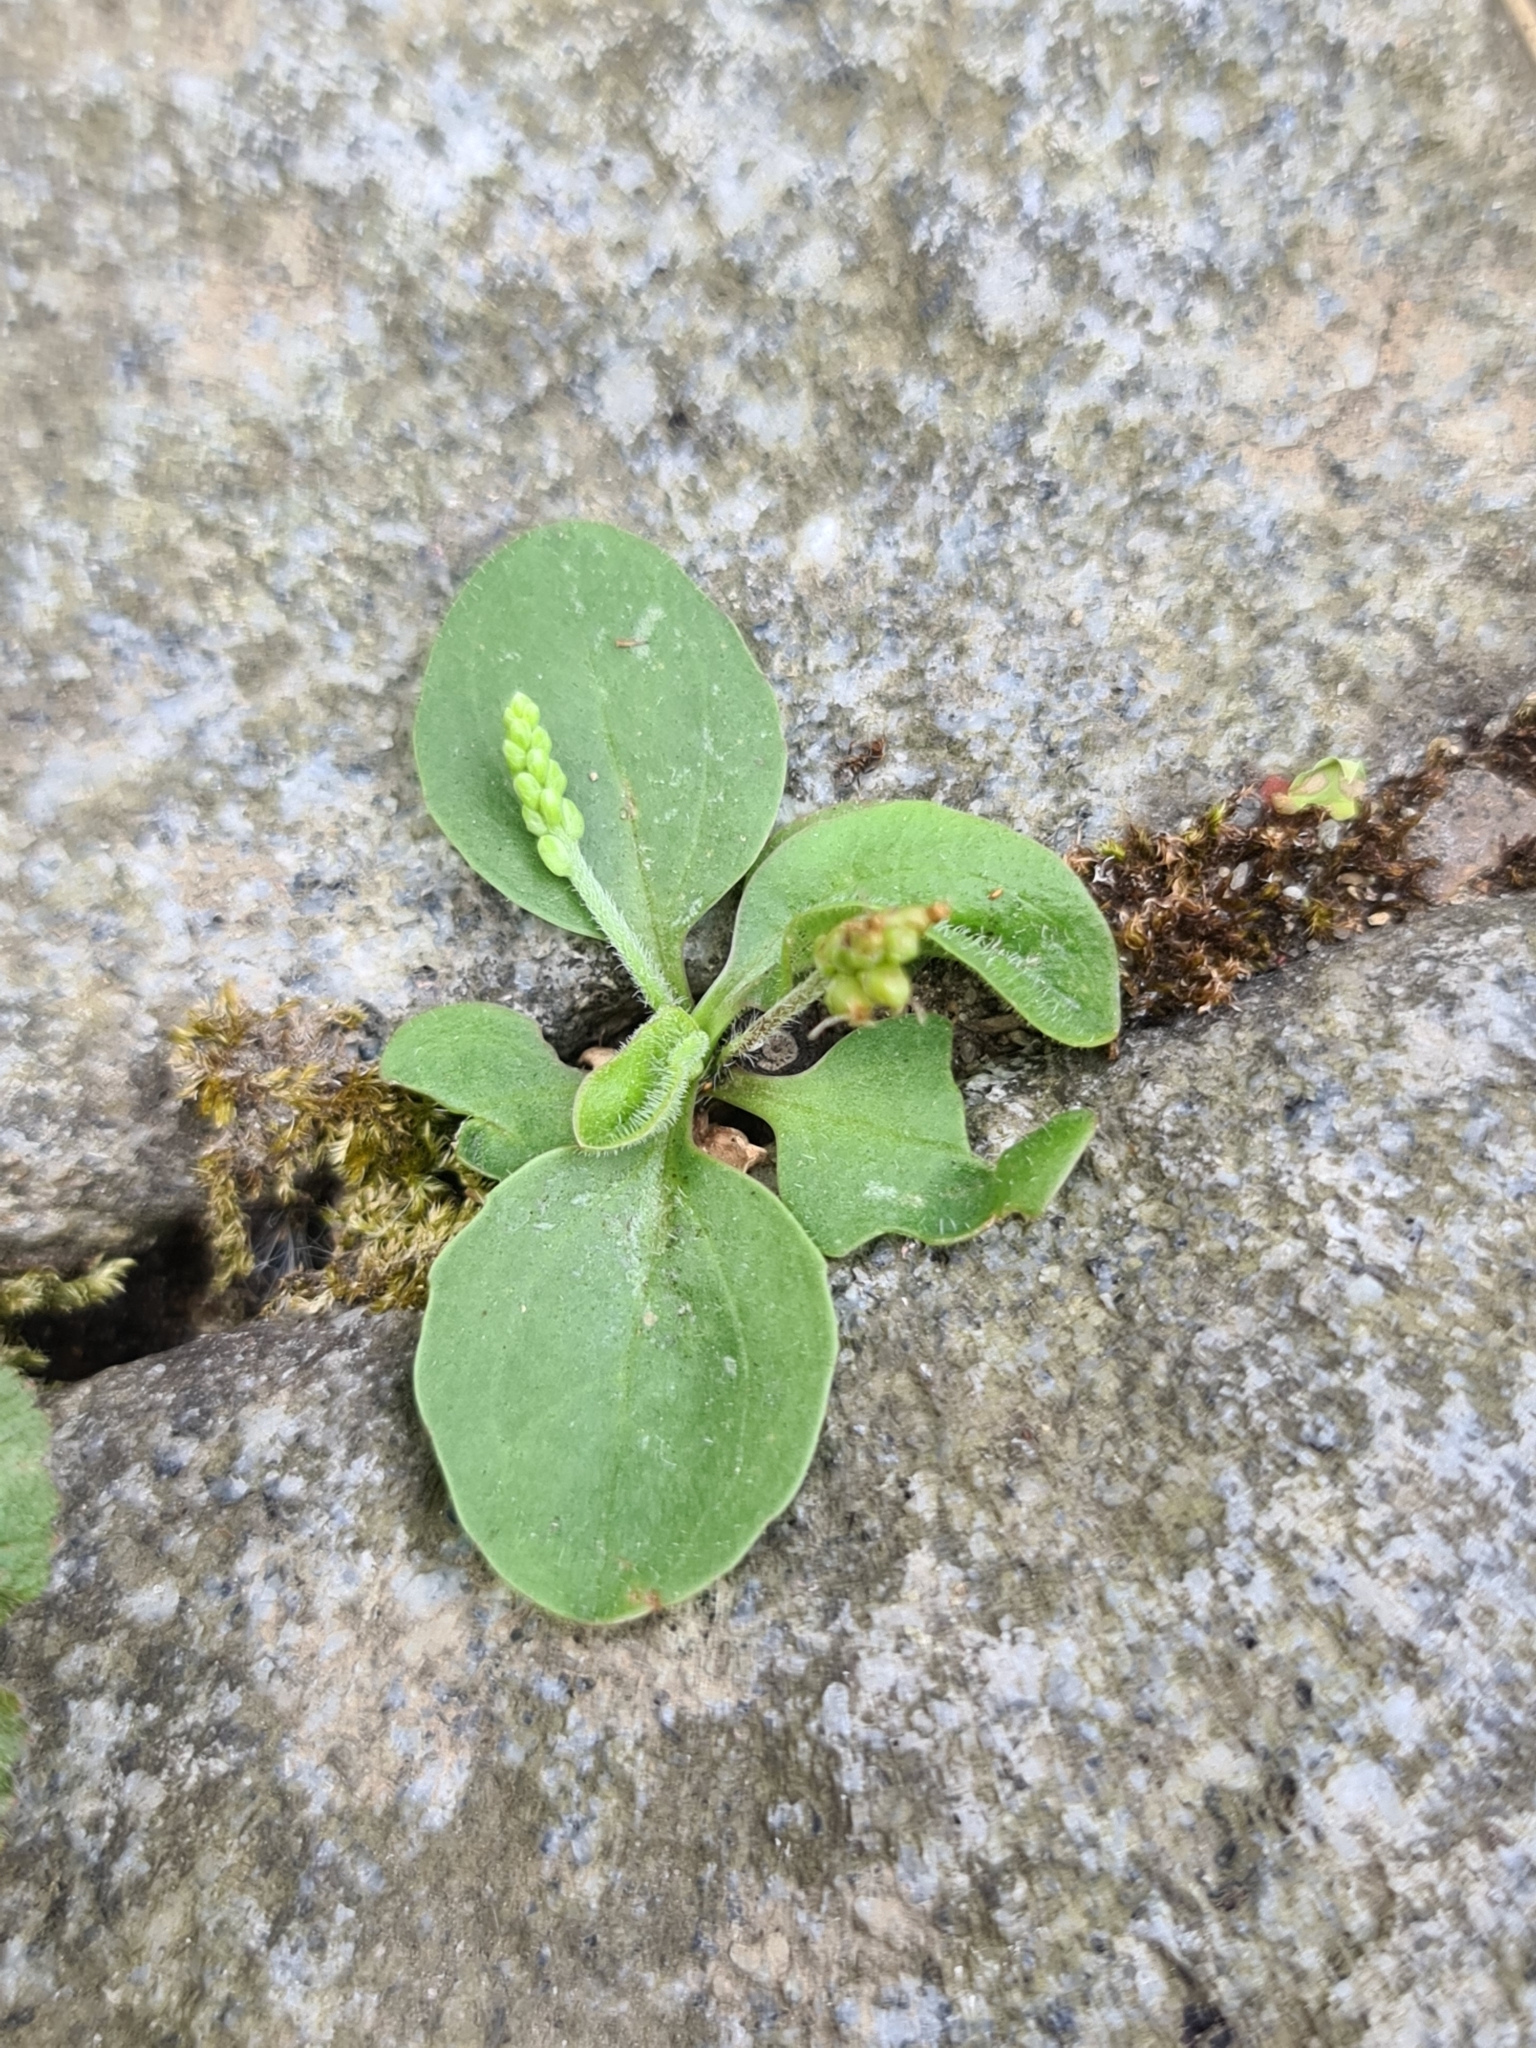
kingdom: Plantae
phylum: Tracheophyta
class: Magnoliopsida
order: Lamiales
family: Plantaginaceae
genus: Plantago
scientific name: Plantago major
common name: Common plantain
